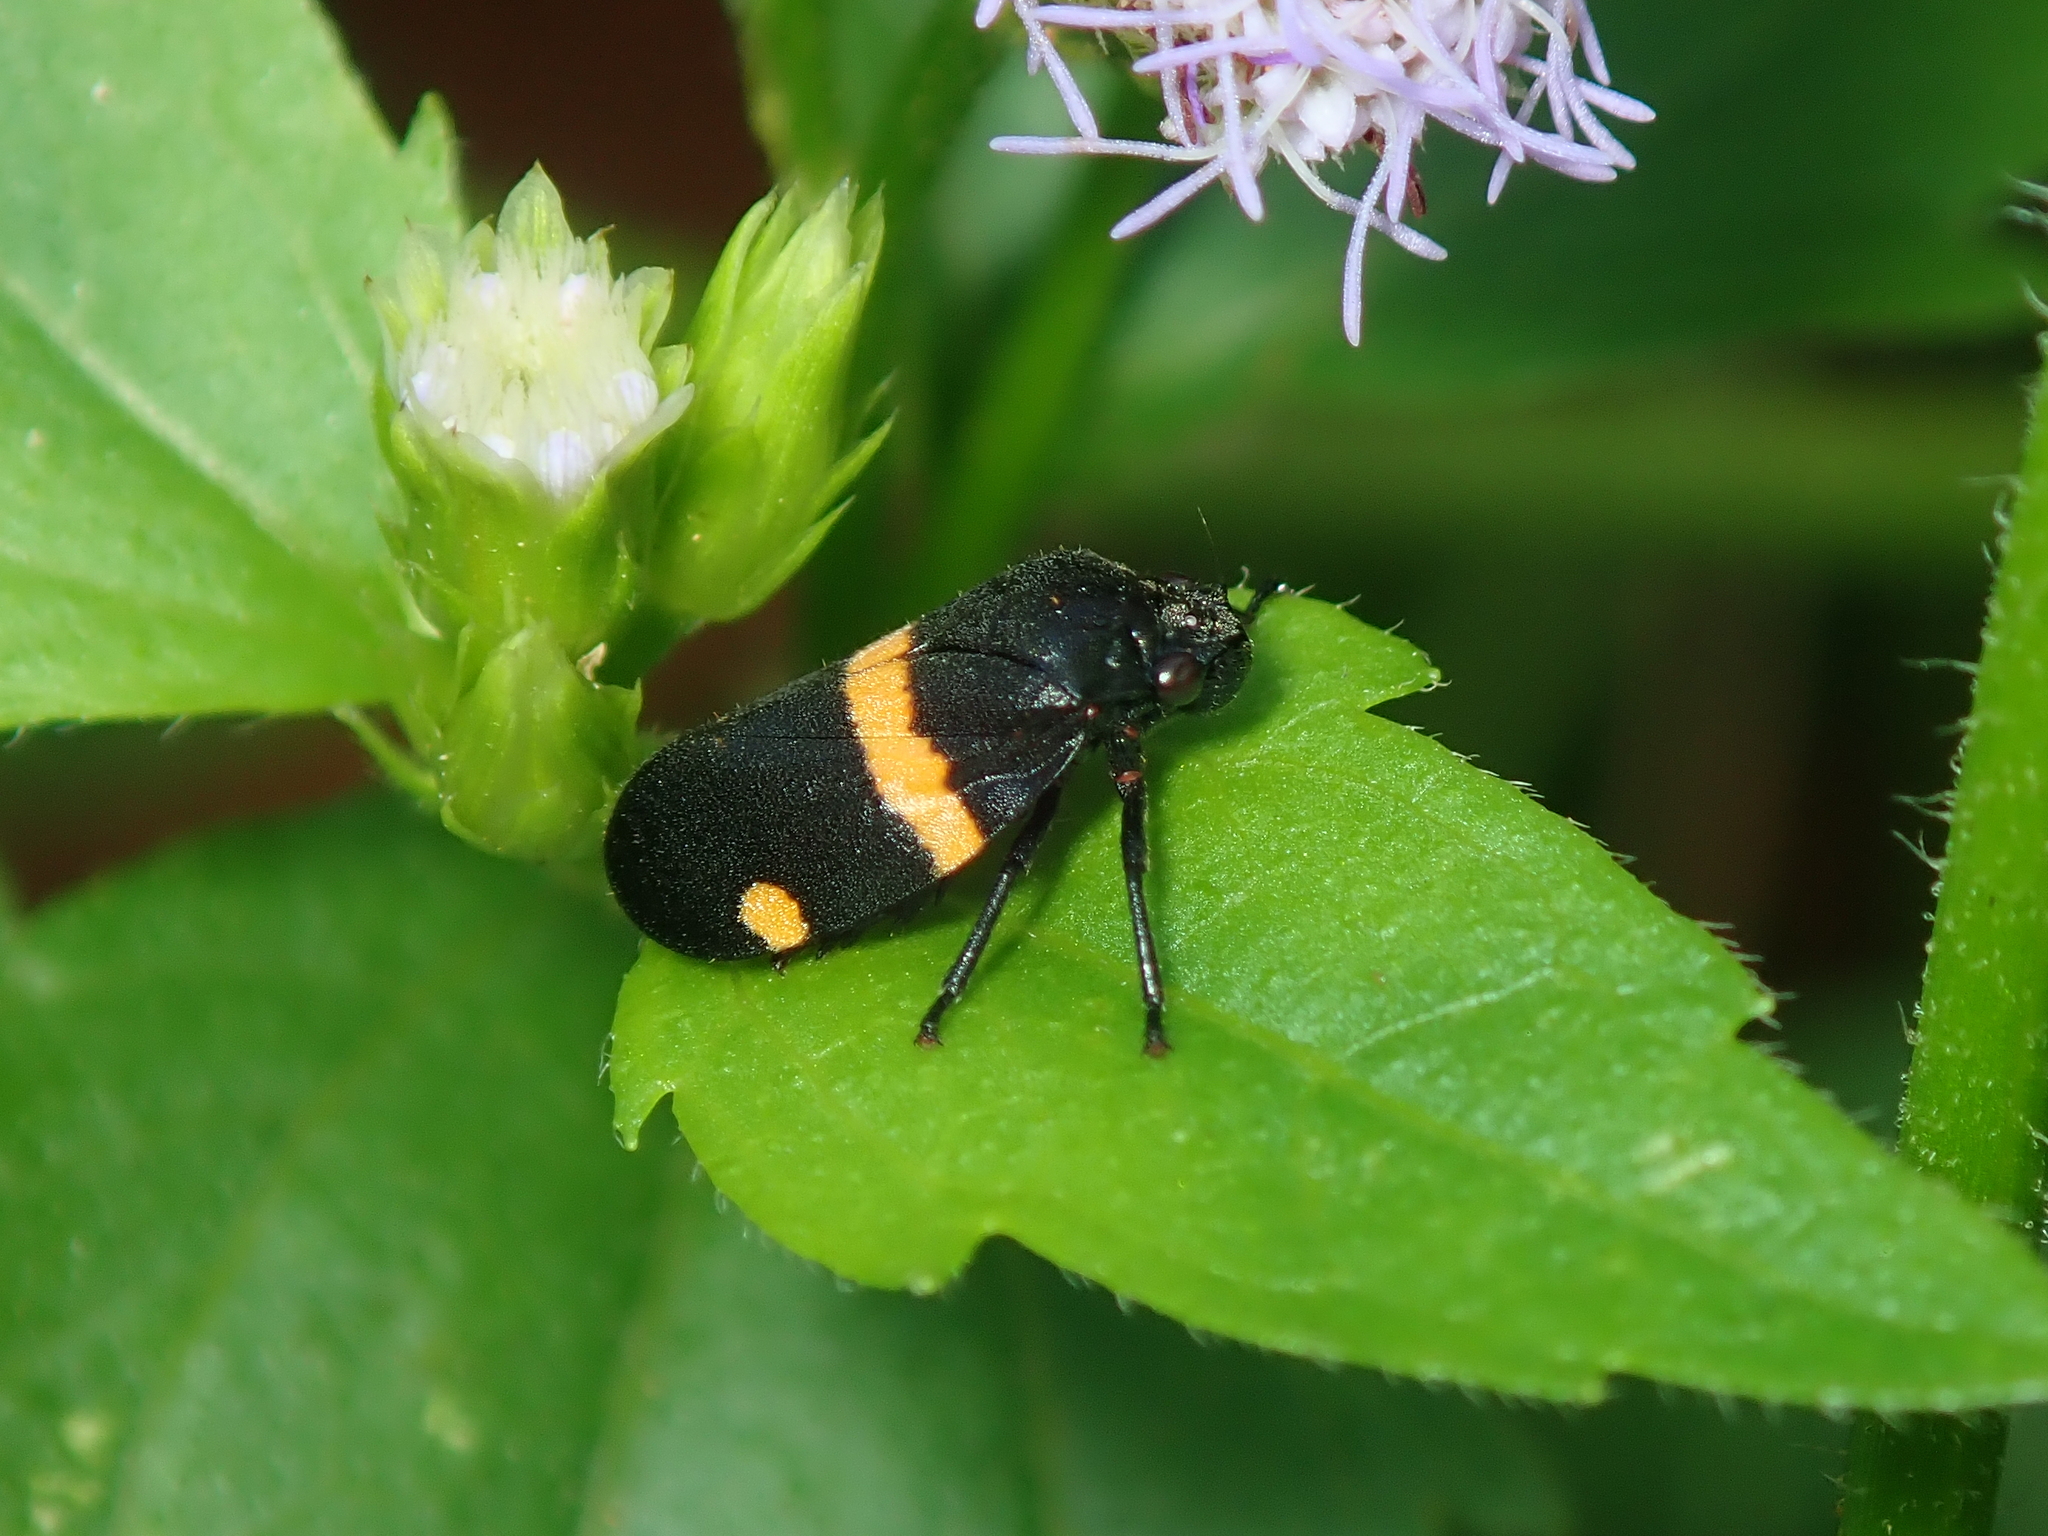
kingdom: Animalia
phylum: Arthropoda
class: Insecta
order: Hemiptera
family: Cercopidae
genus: Aeneolamia
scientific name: Aeneolamia colon
